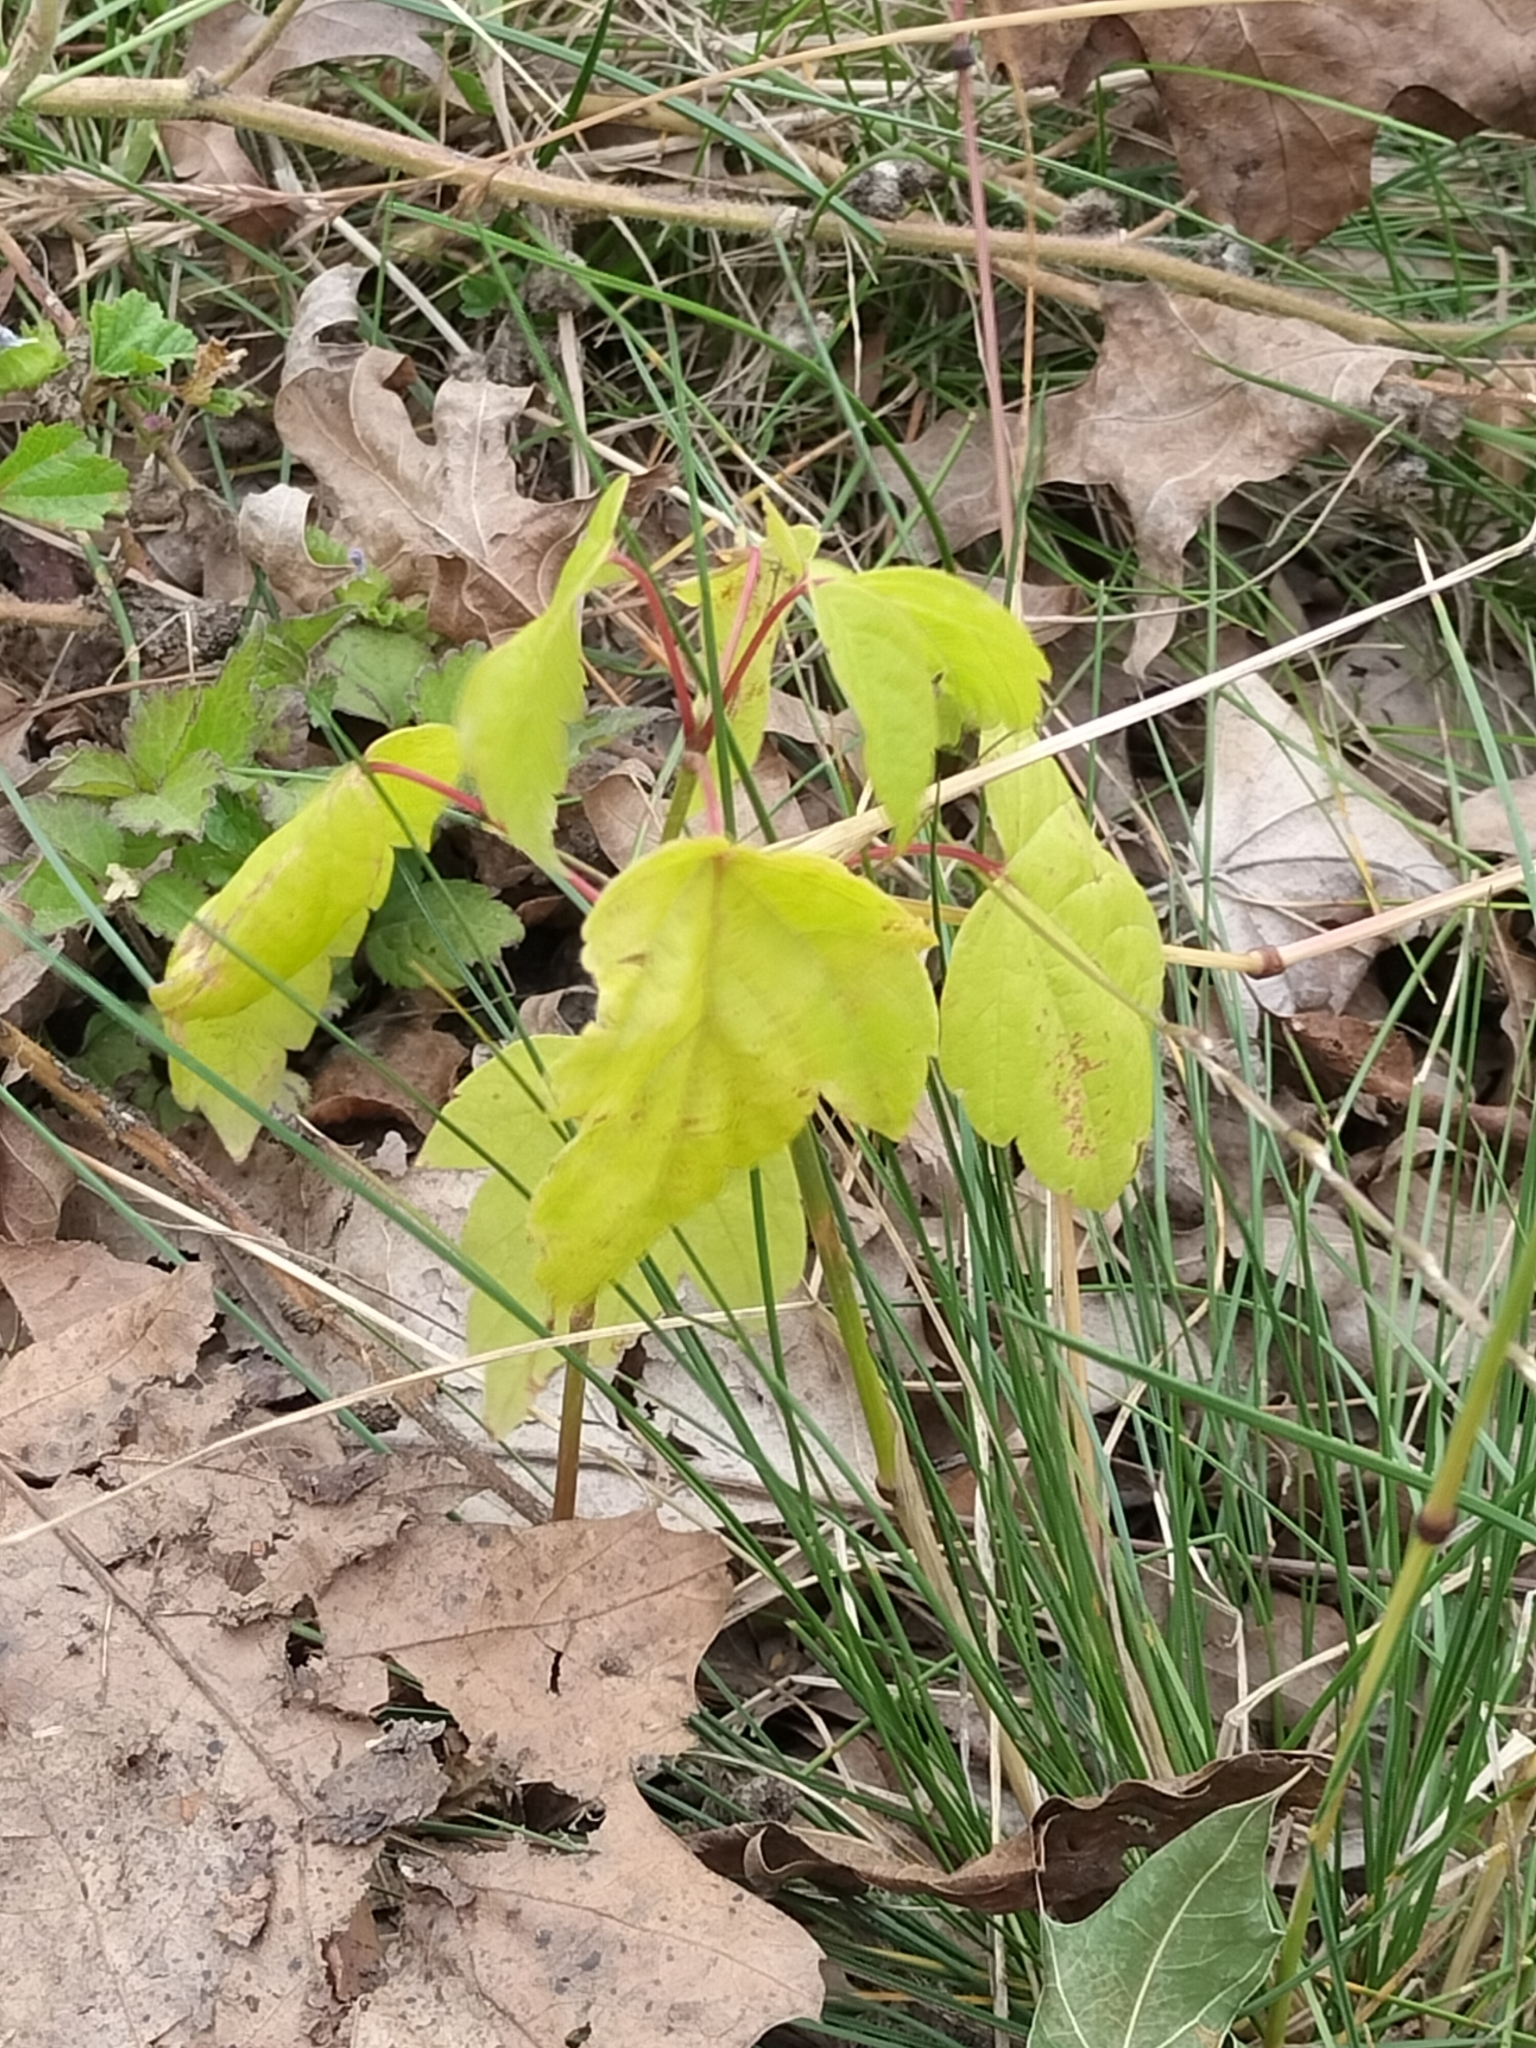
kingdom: Plantae
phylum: Tracheophyta
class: Magnoliopsida
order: Sapindales
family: Sapindaceae
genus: Acer
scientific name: Acer negundo
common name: Ashleaf maple
